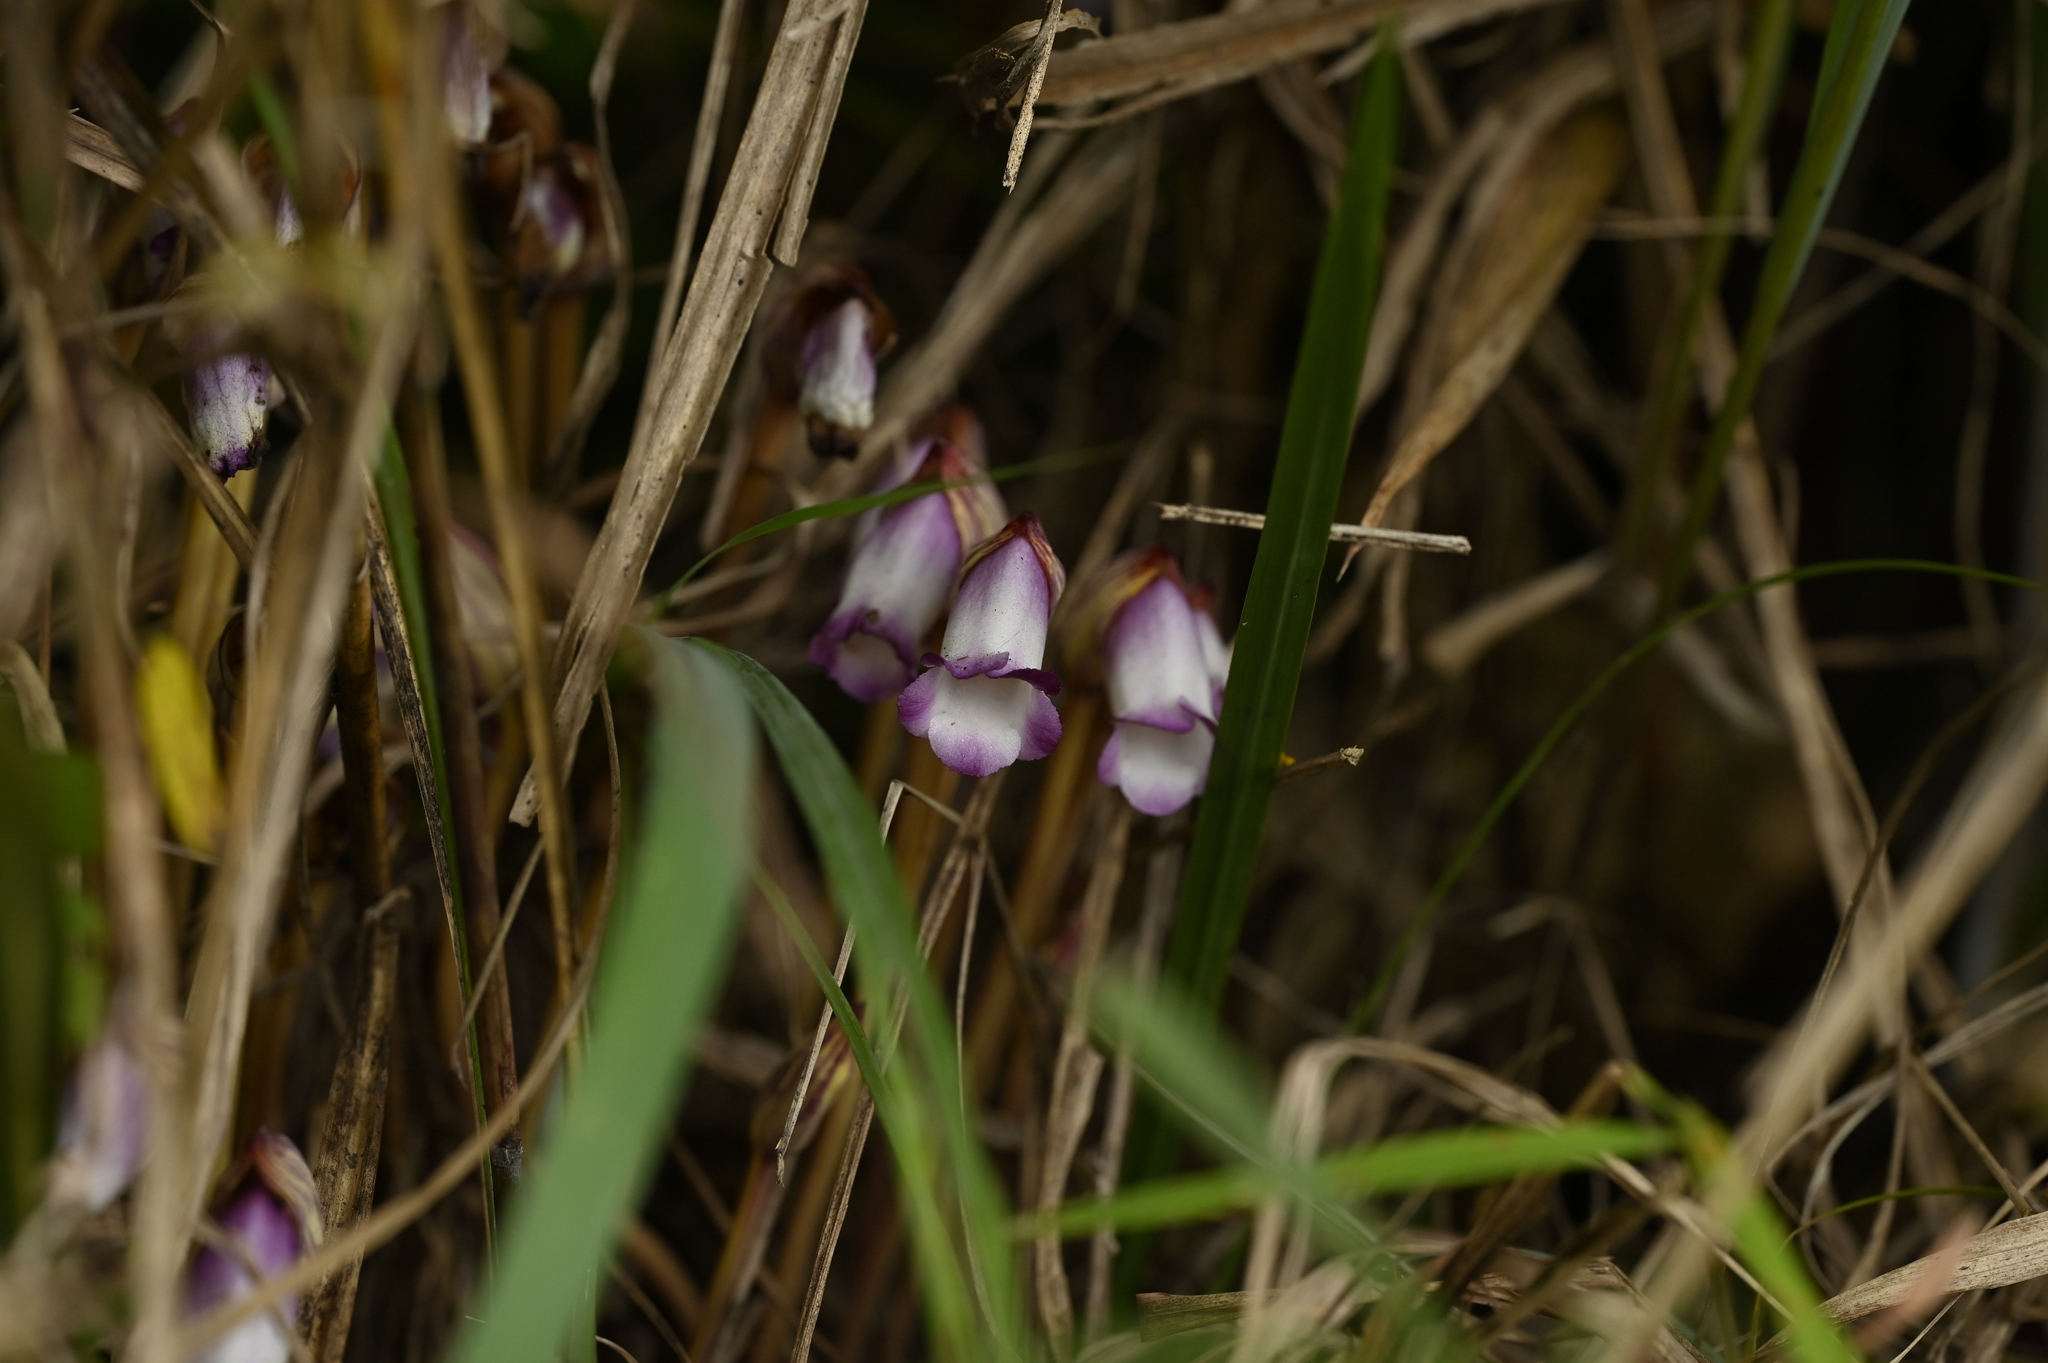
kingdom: Plantae
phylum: Tracheophyta
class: Magnoliopsida
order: Lamiales
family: Orobanchaceae
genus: Aeginetia
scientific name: Aeginetia indica
